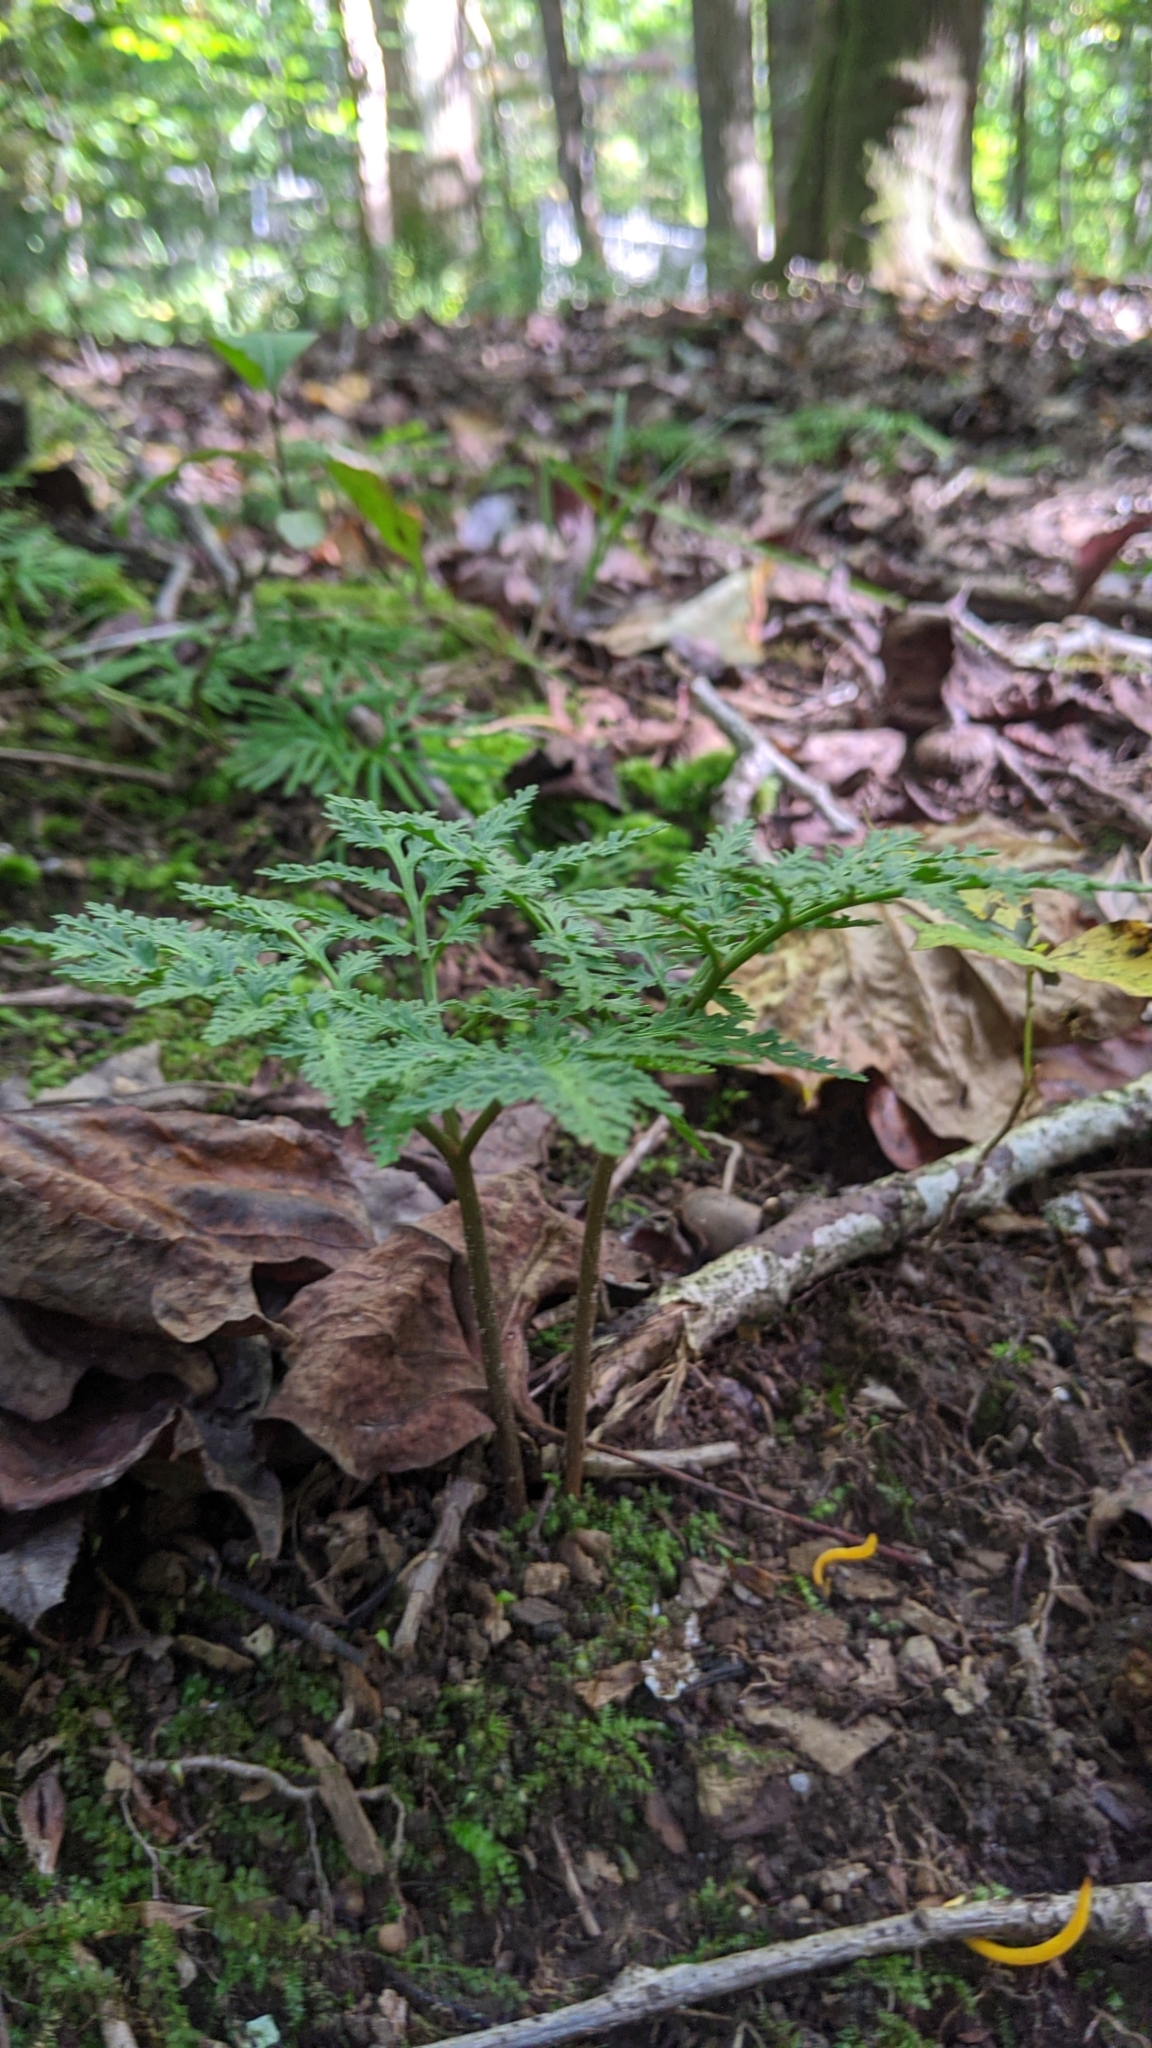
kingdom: Plantae
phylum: Tracheophyta
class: Polypodiopsida
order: Ophioglossales
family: Ophioglossaceae
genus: Sceptridium
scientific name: Sceptridium dissectum
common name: Cut-leaved grapefern
